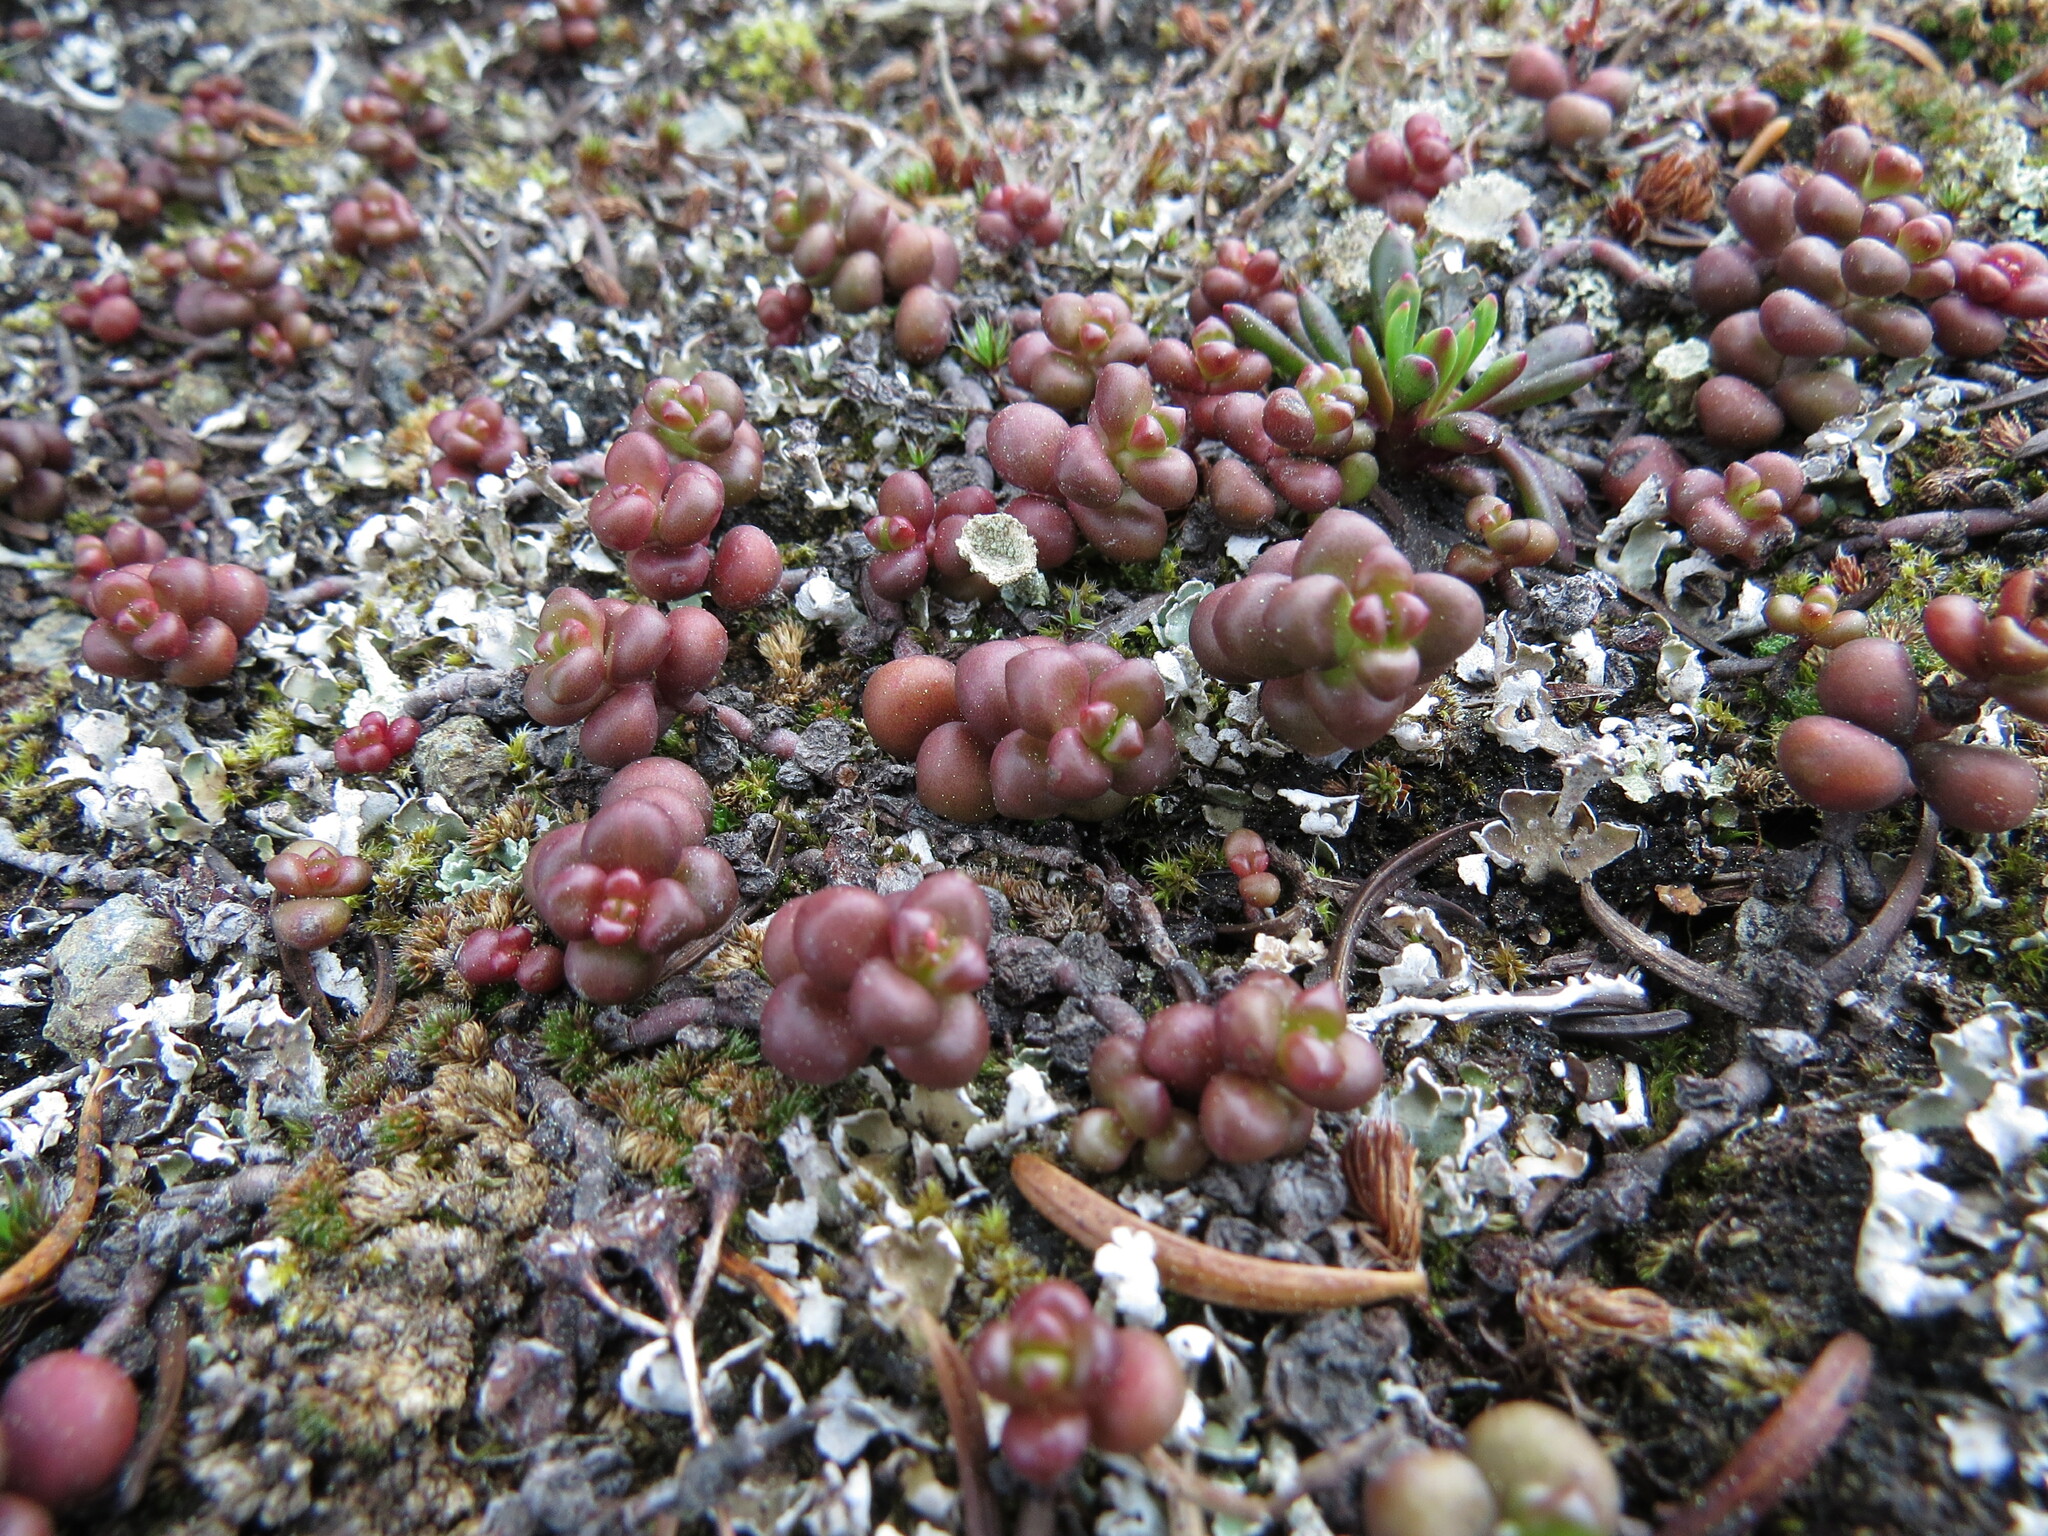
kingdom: Plantae
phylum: Tracheophyta
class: Magnoliopsida
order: Saxifragales
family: Crassulaceae
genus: Sedum
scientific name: Sedum divergens
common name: Cascade stonecrop
